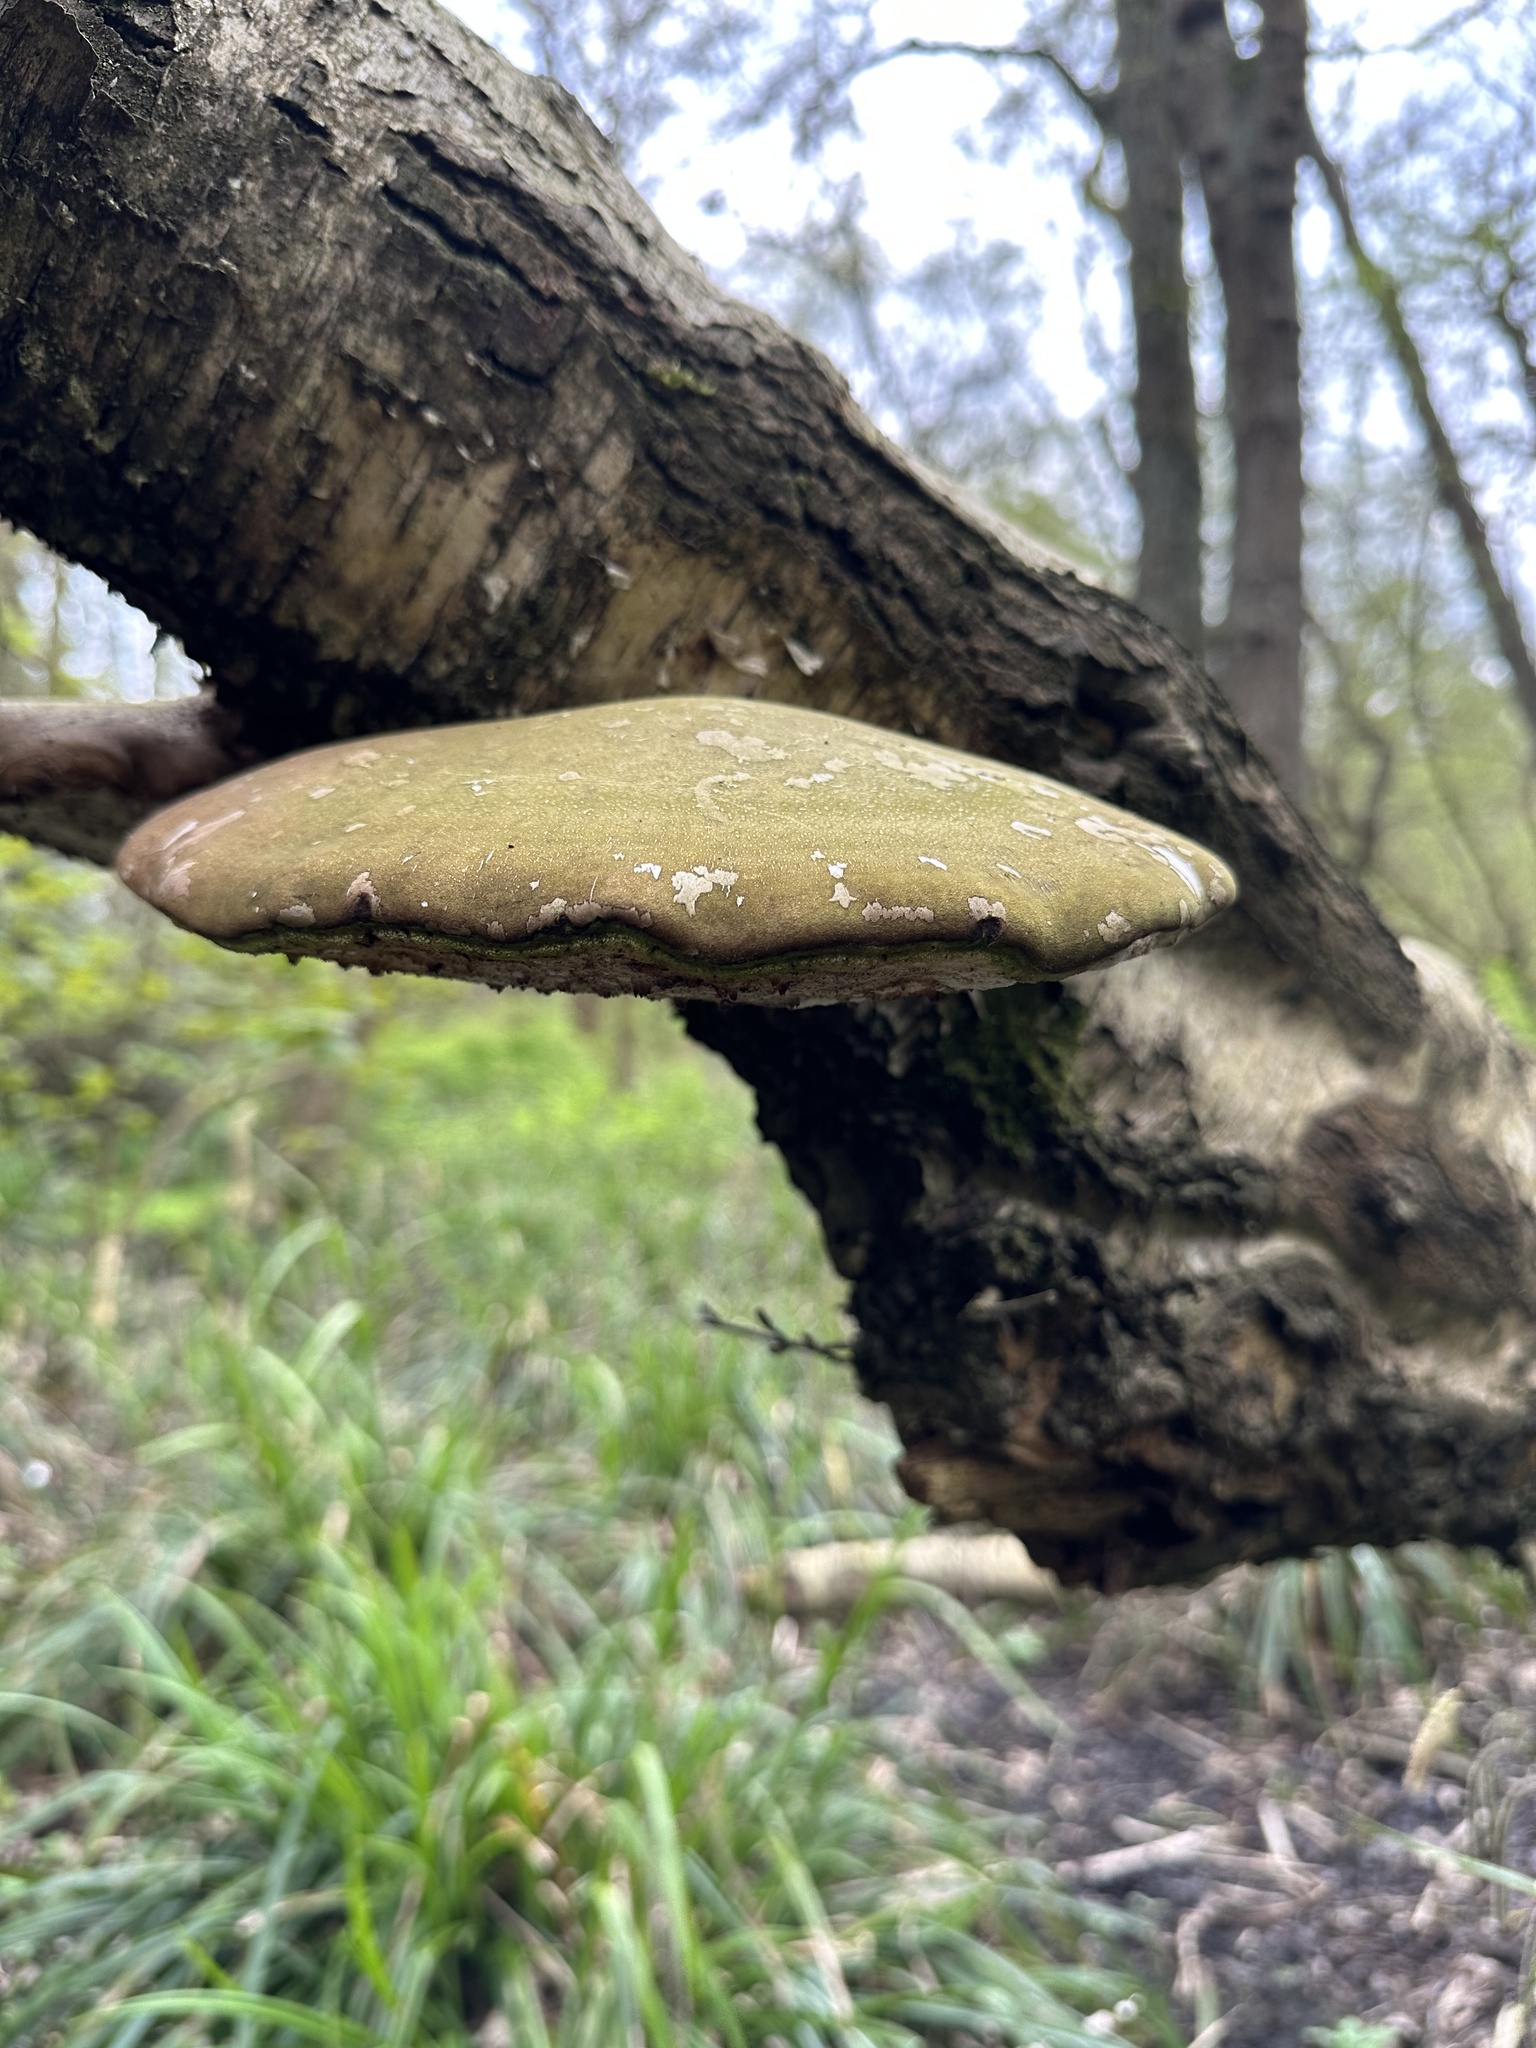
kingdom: Fungi
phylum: Basidiomycota
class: Agaricomycetes
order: Polyporales
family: Fomitopsidaceae
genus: Fomitopsis
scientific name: Fomitopsis betulina
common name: Birch polypore
